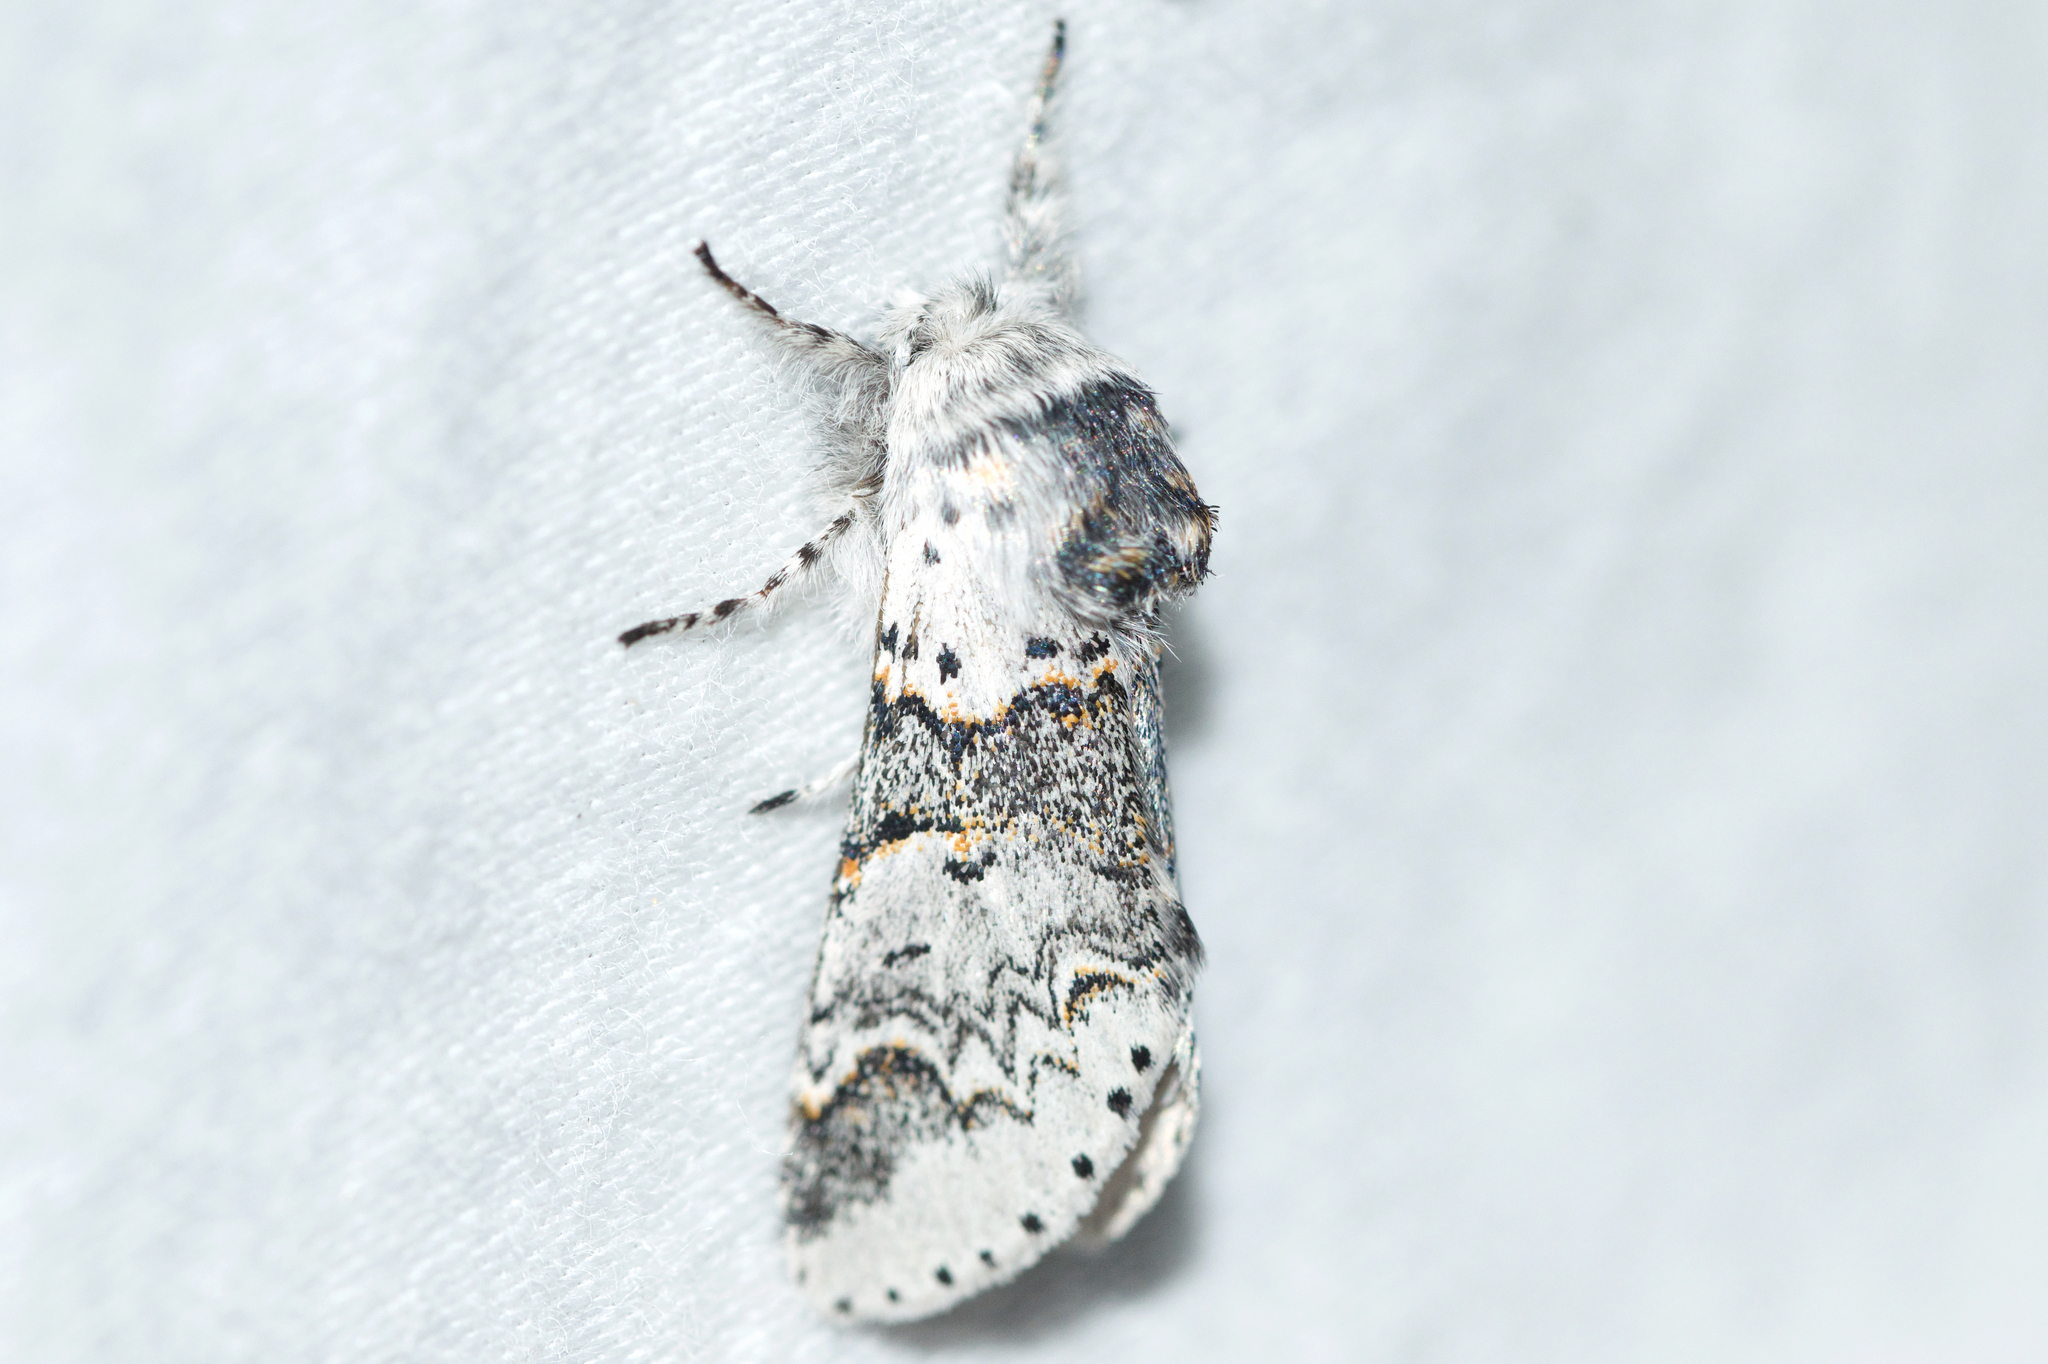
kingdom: Animalia
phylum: Arthropoda
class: Insecta
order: Lepidoptera
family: Notodontidae
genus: Furcula
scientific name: Furcula occidentalis
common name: Western furcula moth
